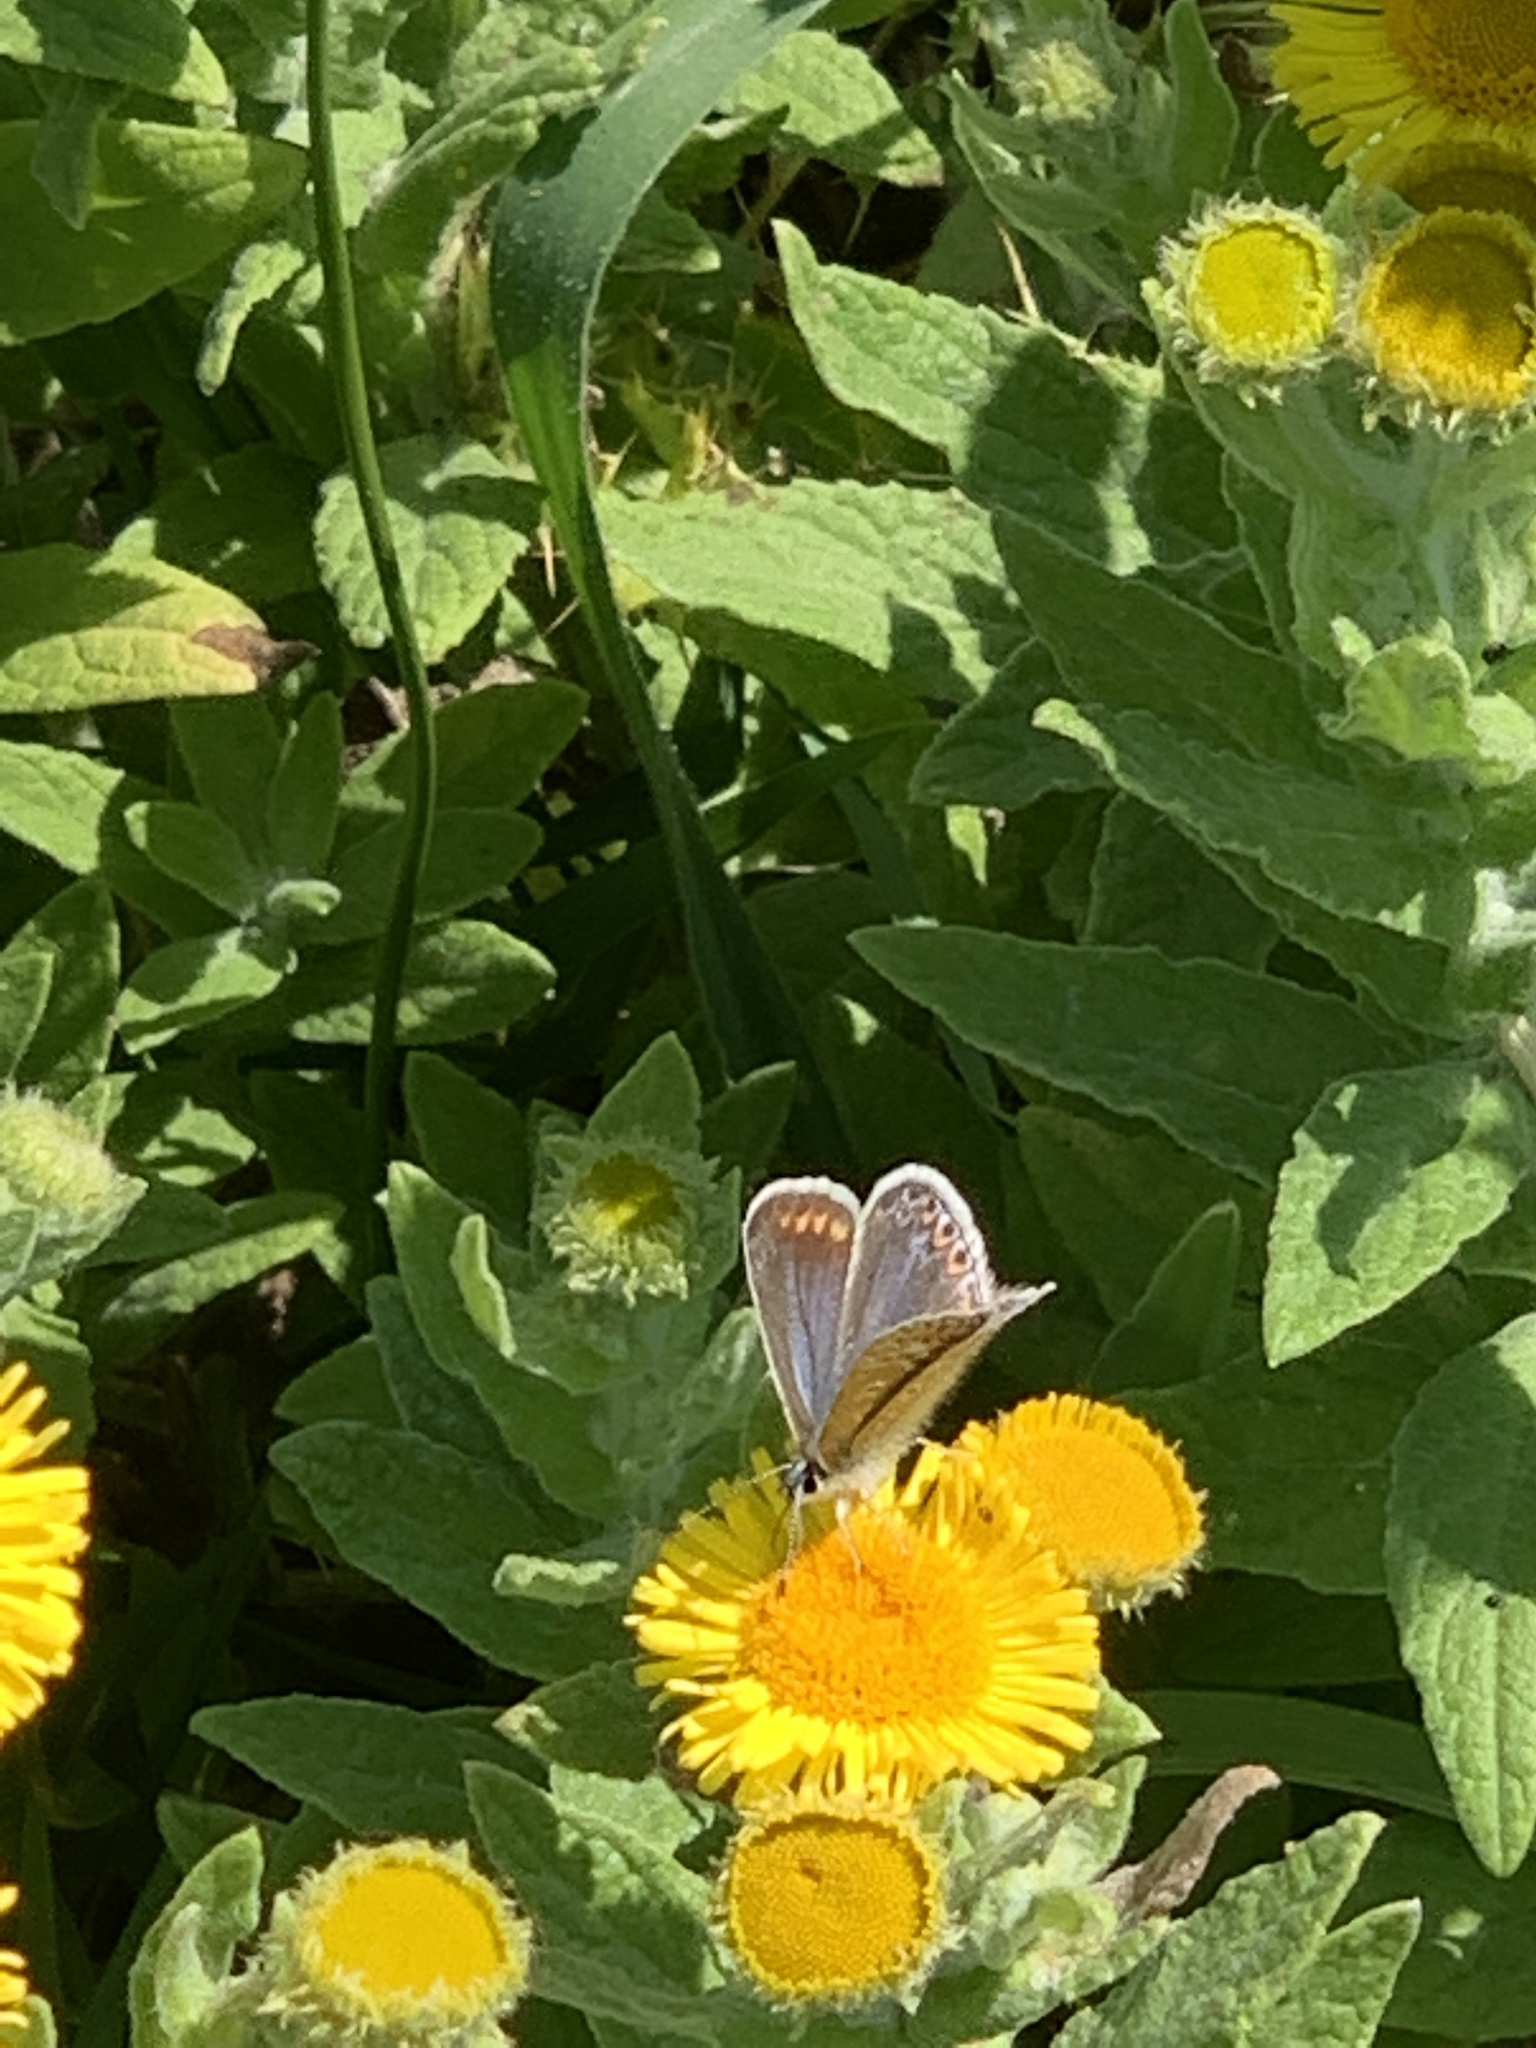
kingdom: Animalia
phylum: Arthropoda
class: Insecta
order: Lepidoptera
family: Lycaenidae
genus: Polyommatus
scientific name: Polyommatus icarus
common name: Common blue
